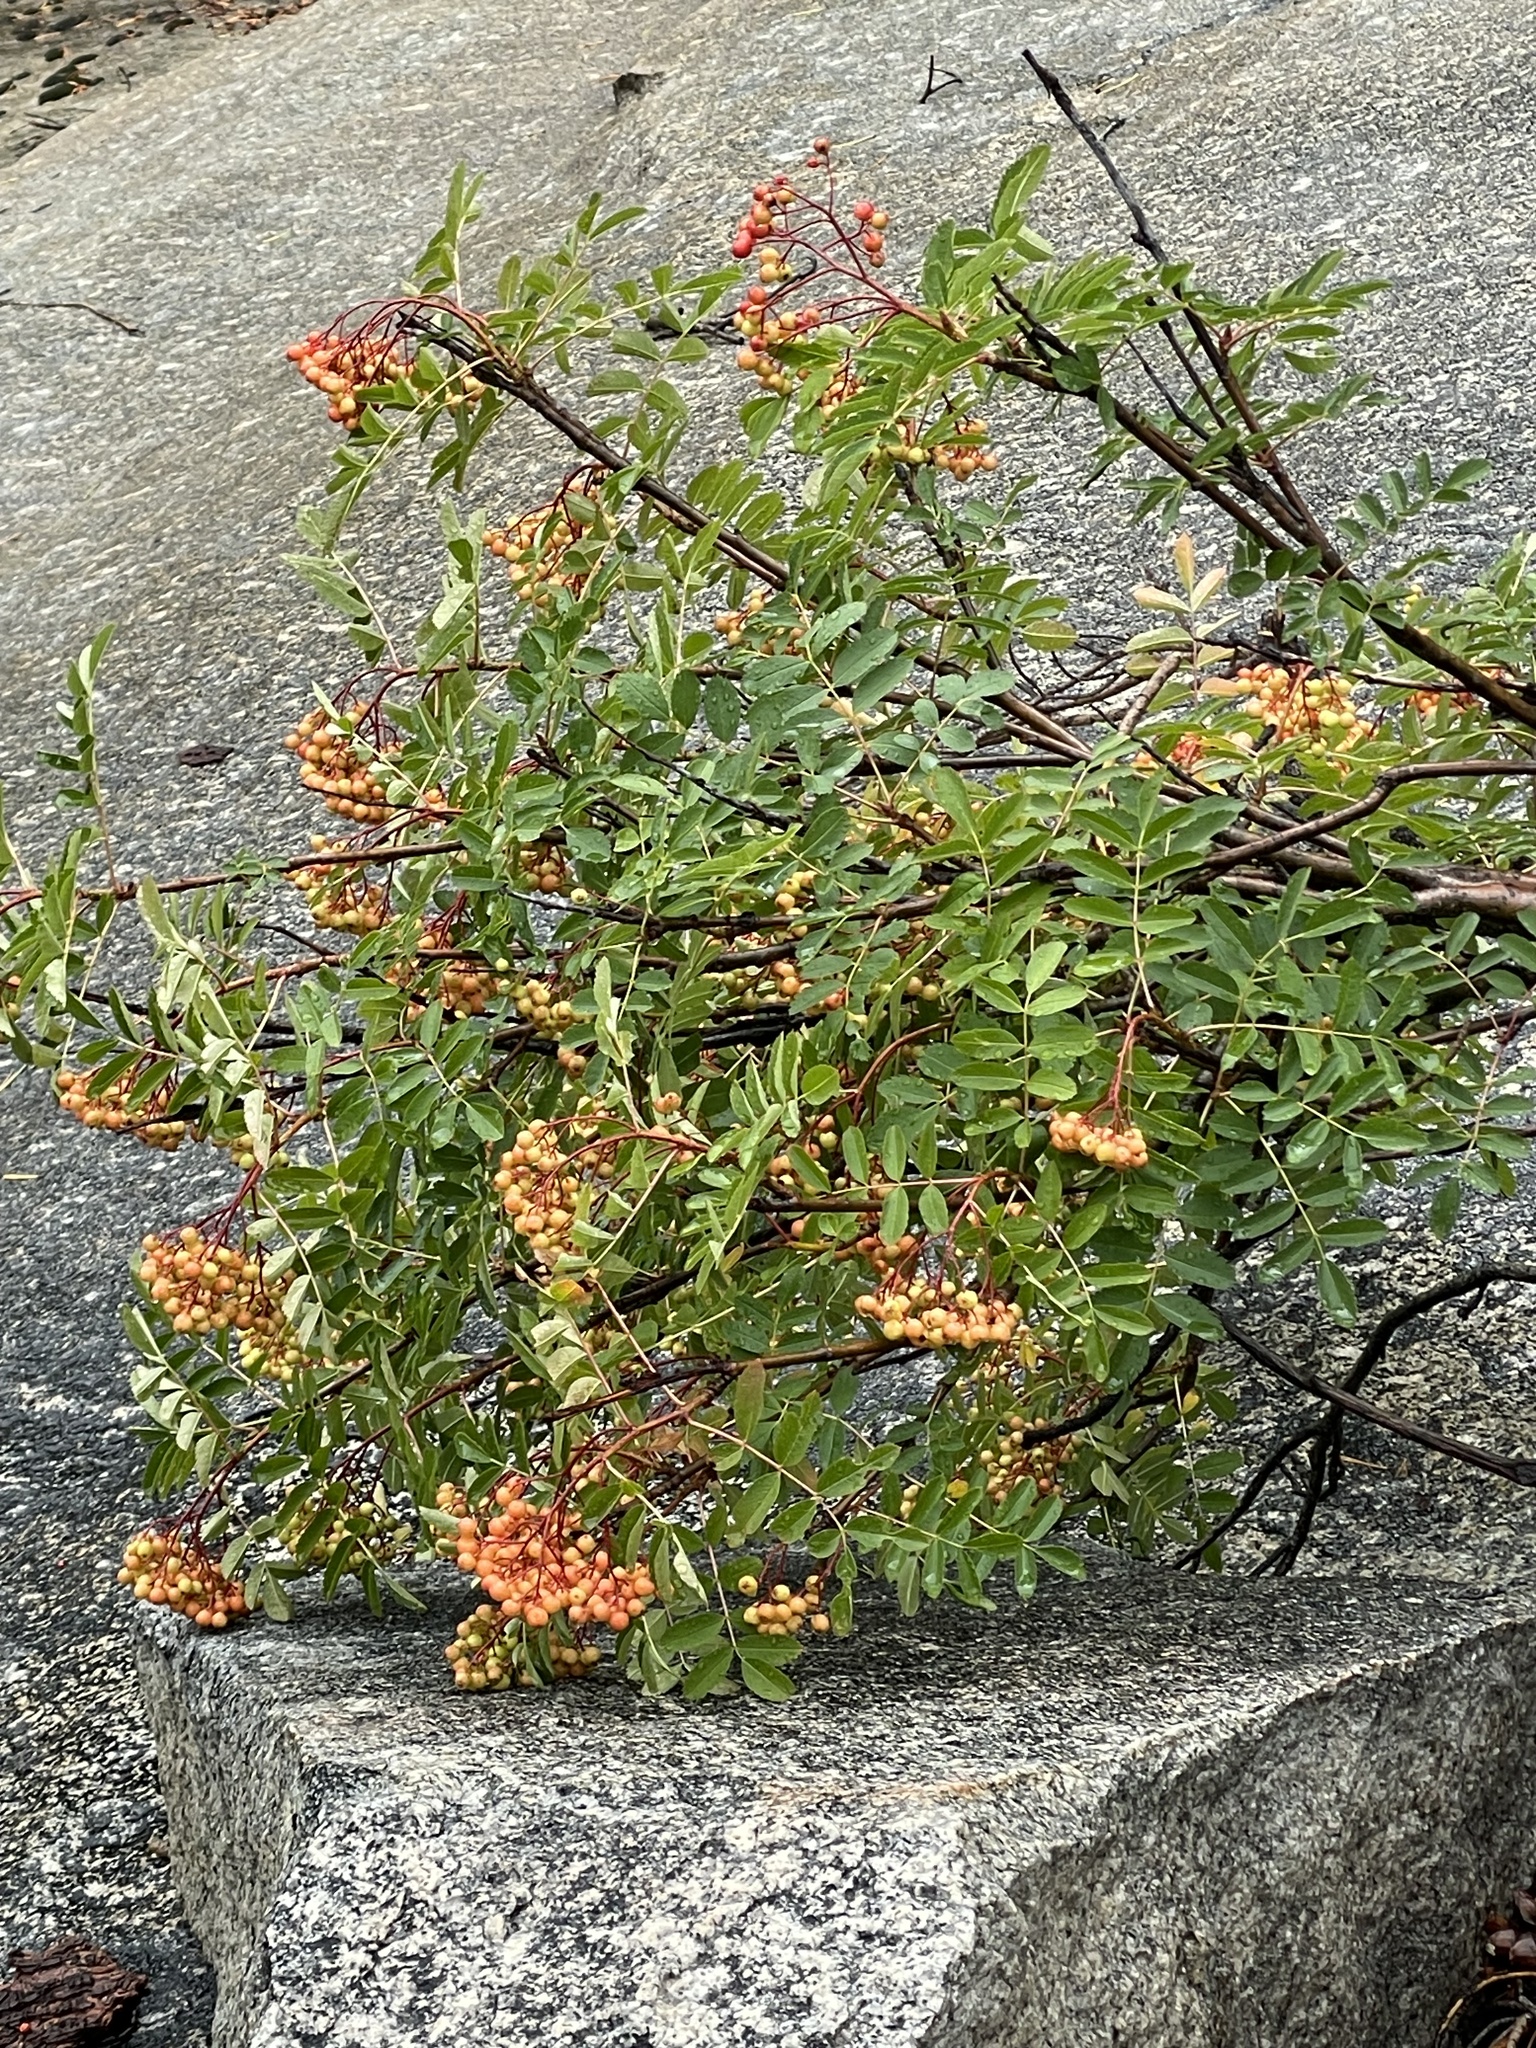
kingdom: Plantae
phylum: Tracheophyta
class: Magnoliopsida
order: Rosales
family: Rosaceae
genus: Sorbus
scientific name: Sorbus californica
